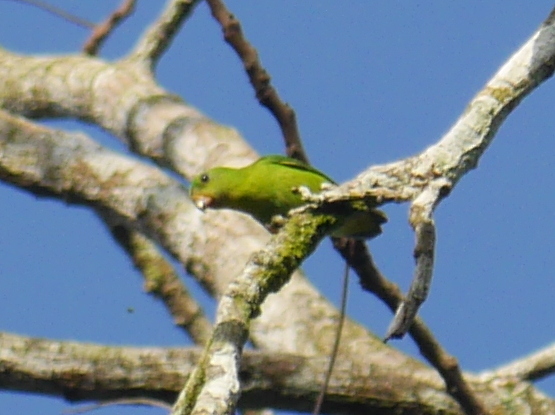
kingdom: Animalia
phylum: Chordata
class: Aves
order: Psittaciformes
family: Psittacidae
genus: Loriculus
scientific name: Loriculus galgulus
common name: Blue-crowned hanging parrot
